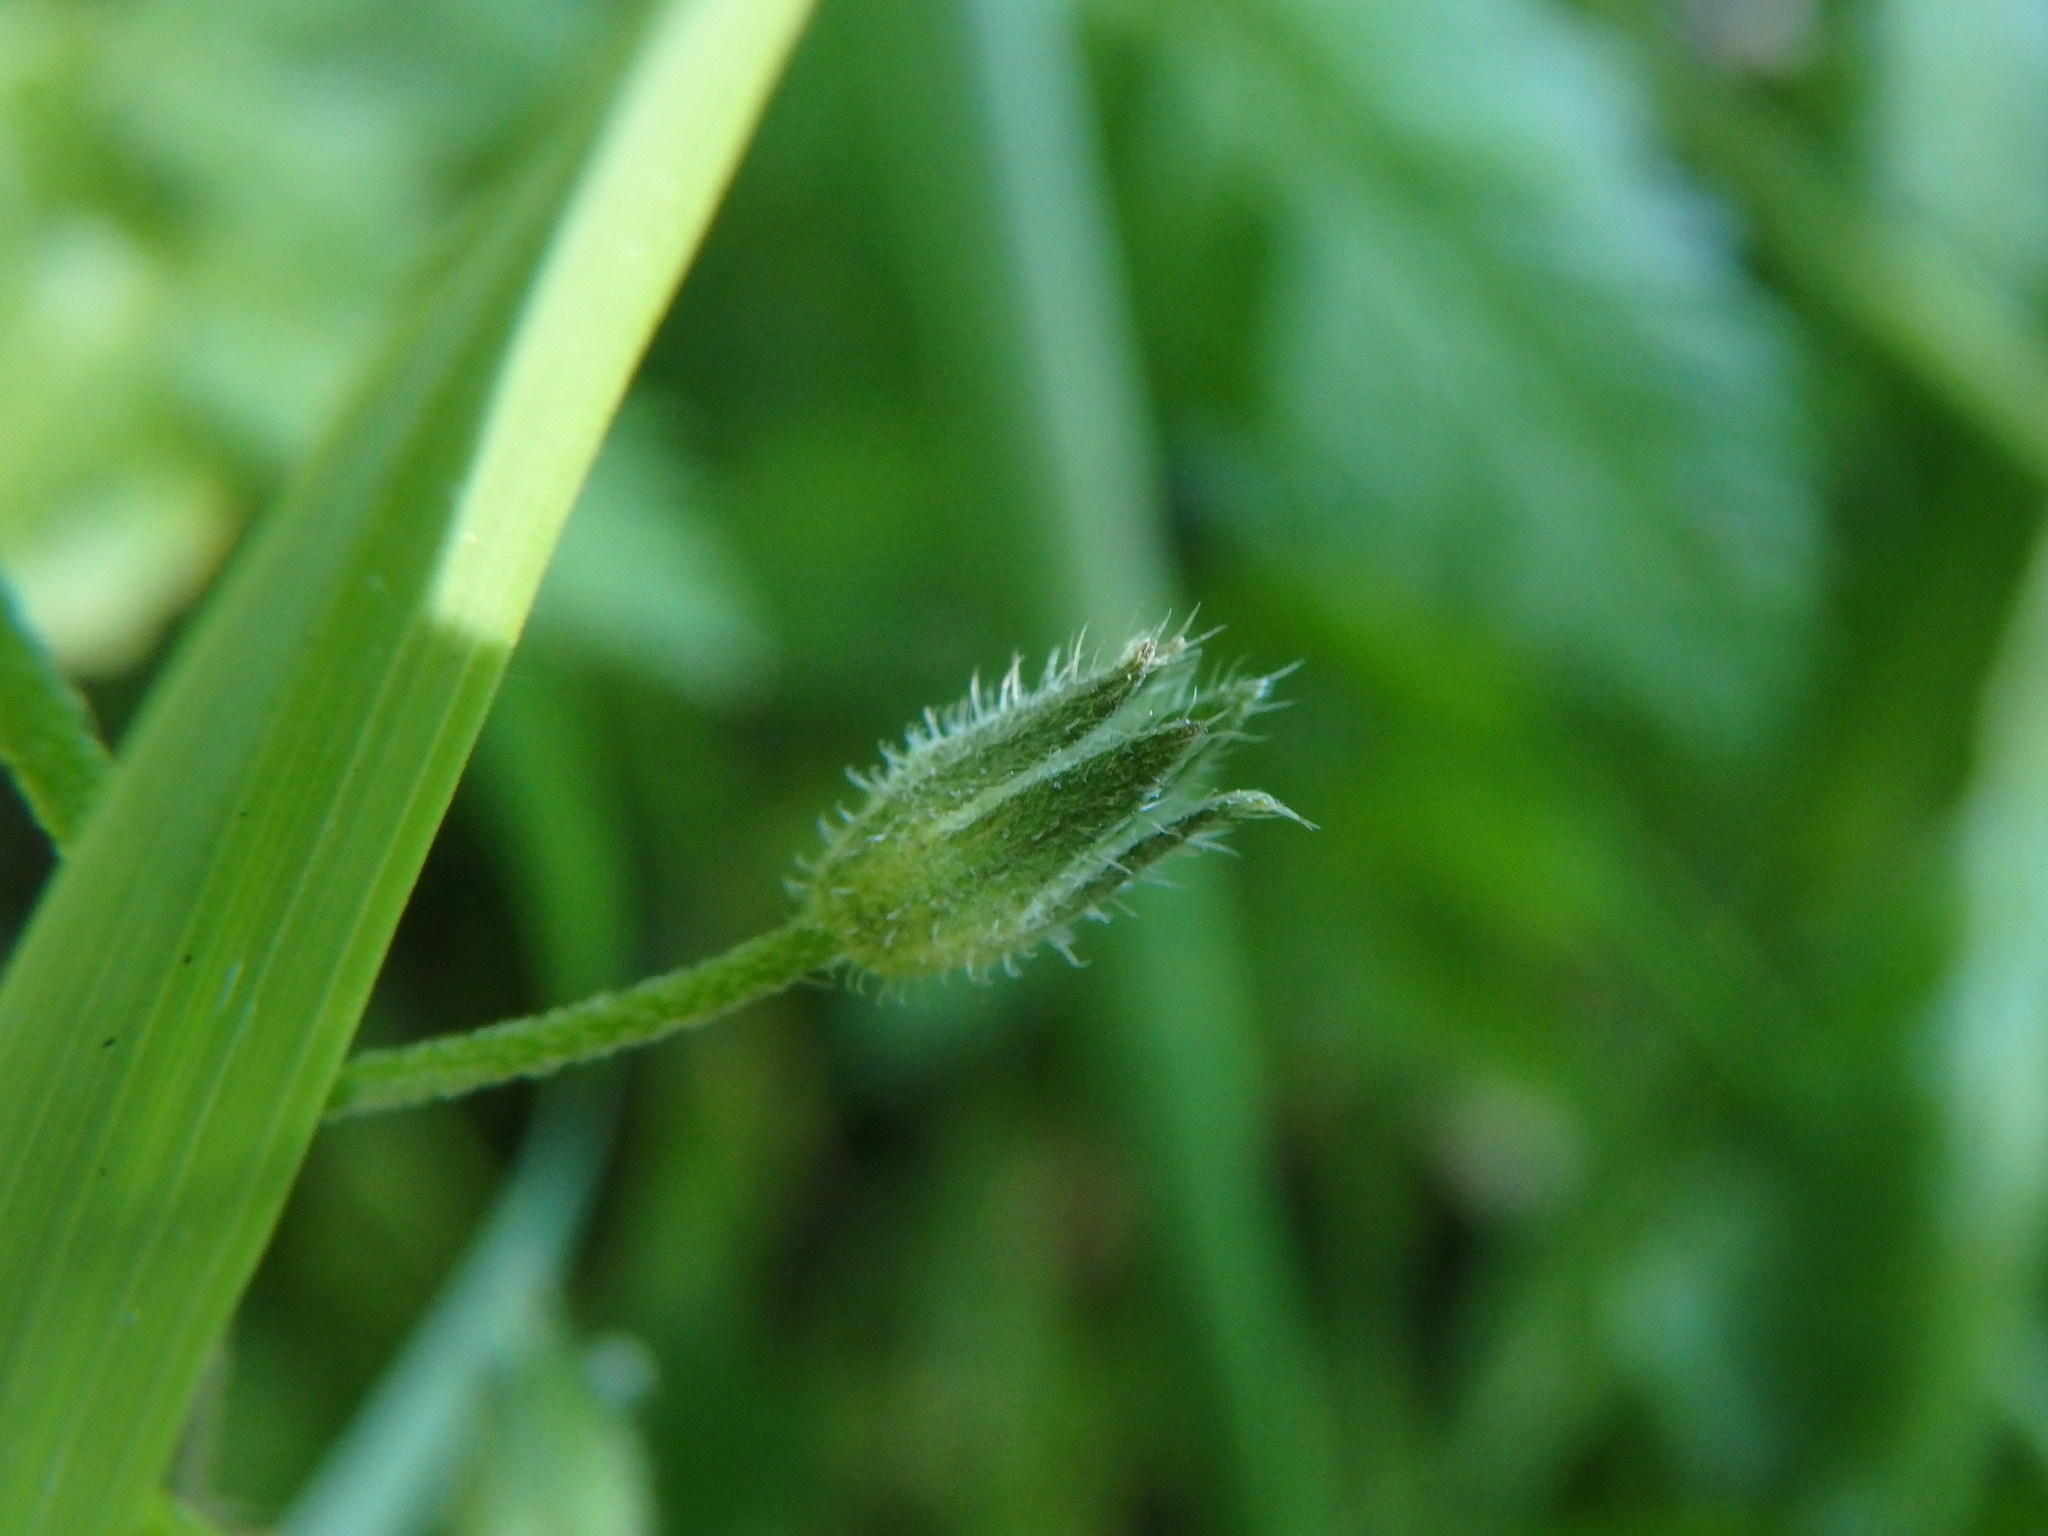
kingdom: Plantae
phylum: Tracheophyta
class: Magnoliopsida
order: Boraginales
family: Boraginaceae
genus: Myosotis
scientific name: Myosotis sylvatica
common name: Wood forget-me-not
